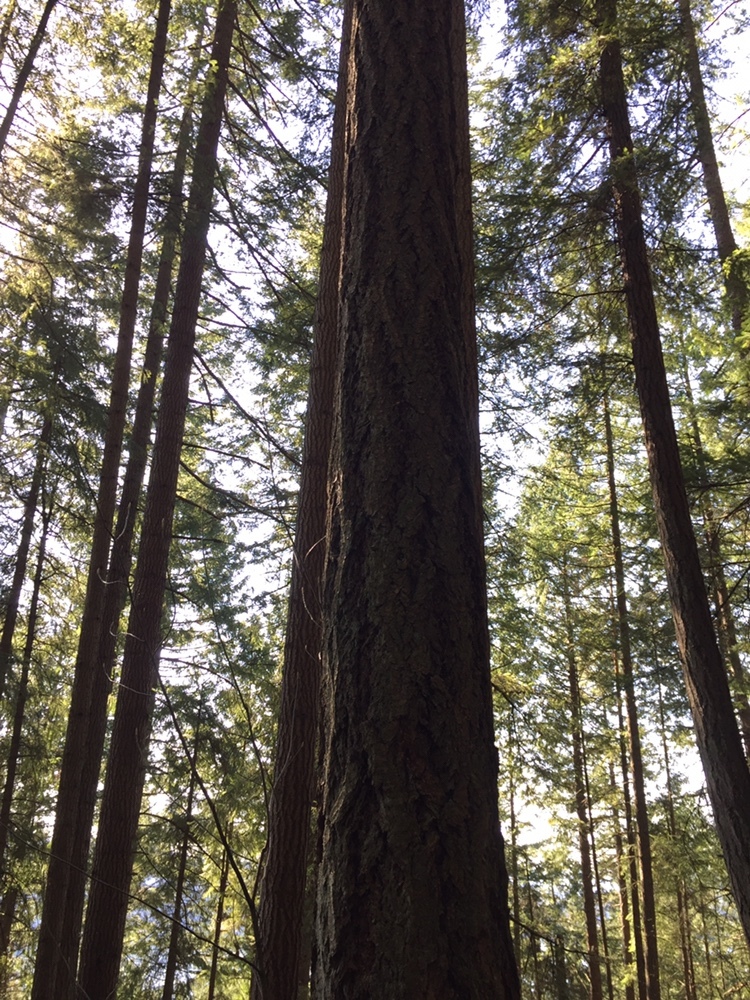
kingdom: Plantae
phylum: Tracheophyta
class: Pinopsida
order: Pinales
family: Pinaceae
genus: Pseudotsuga
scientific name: Pseudotsuga menziesii
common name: Douglas fir
